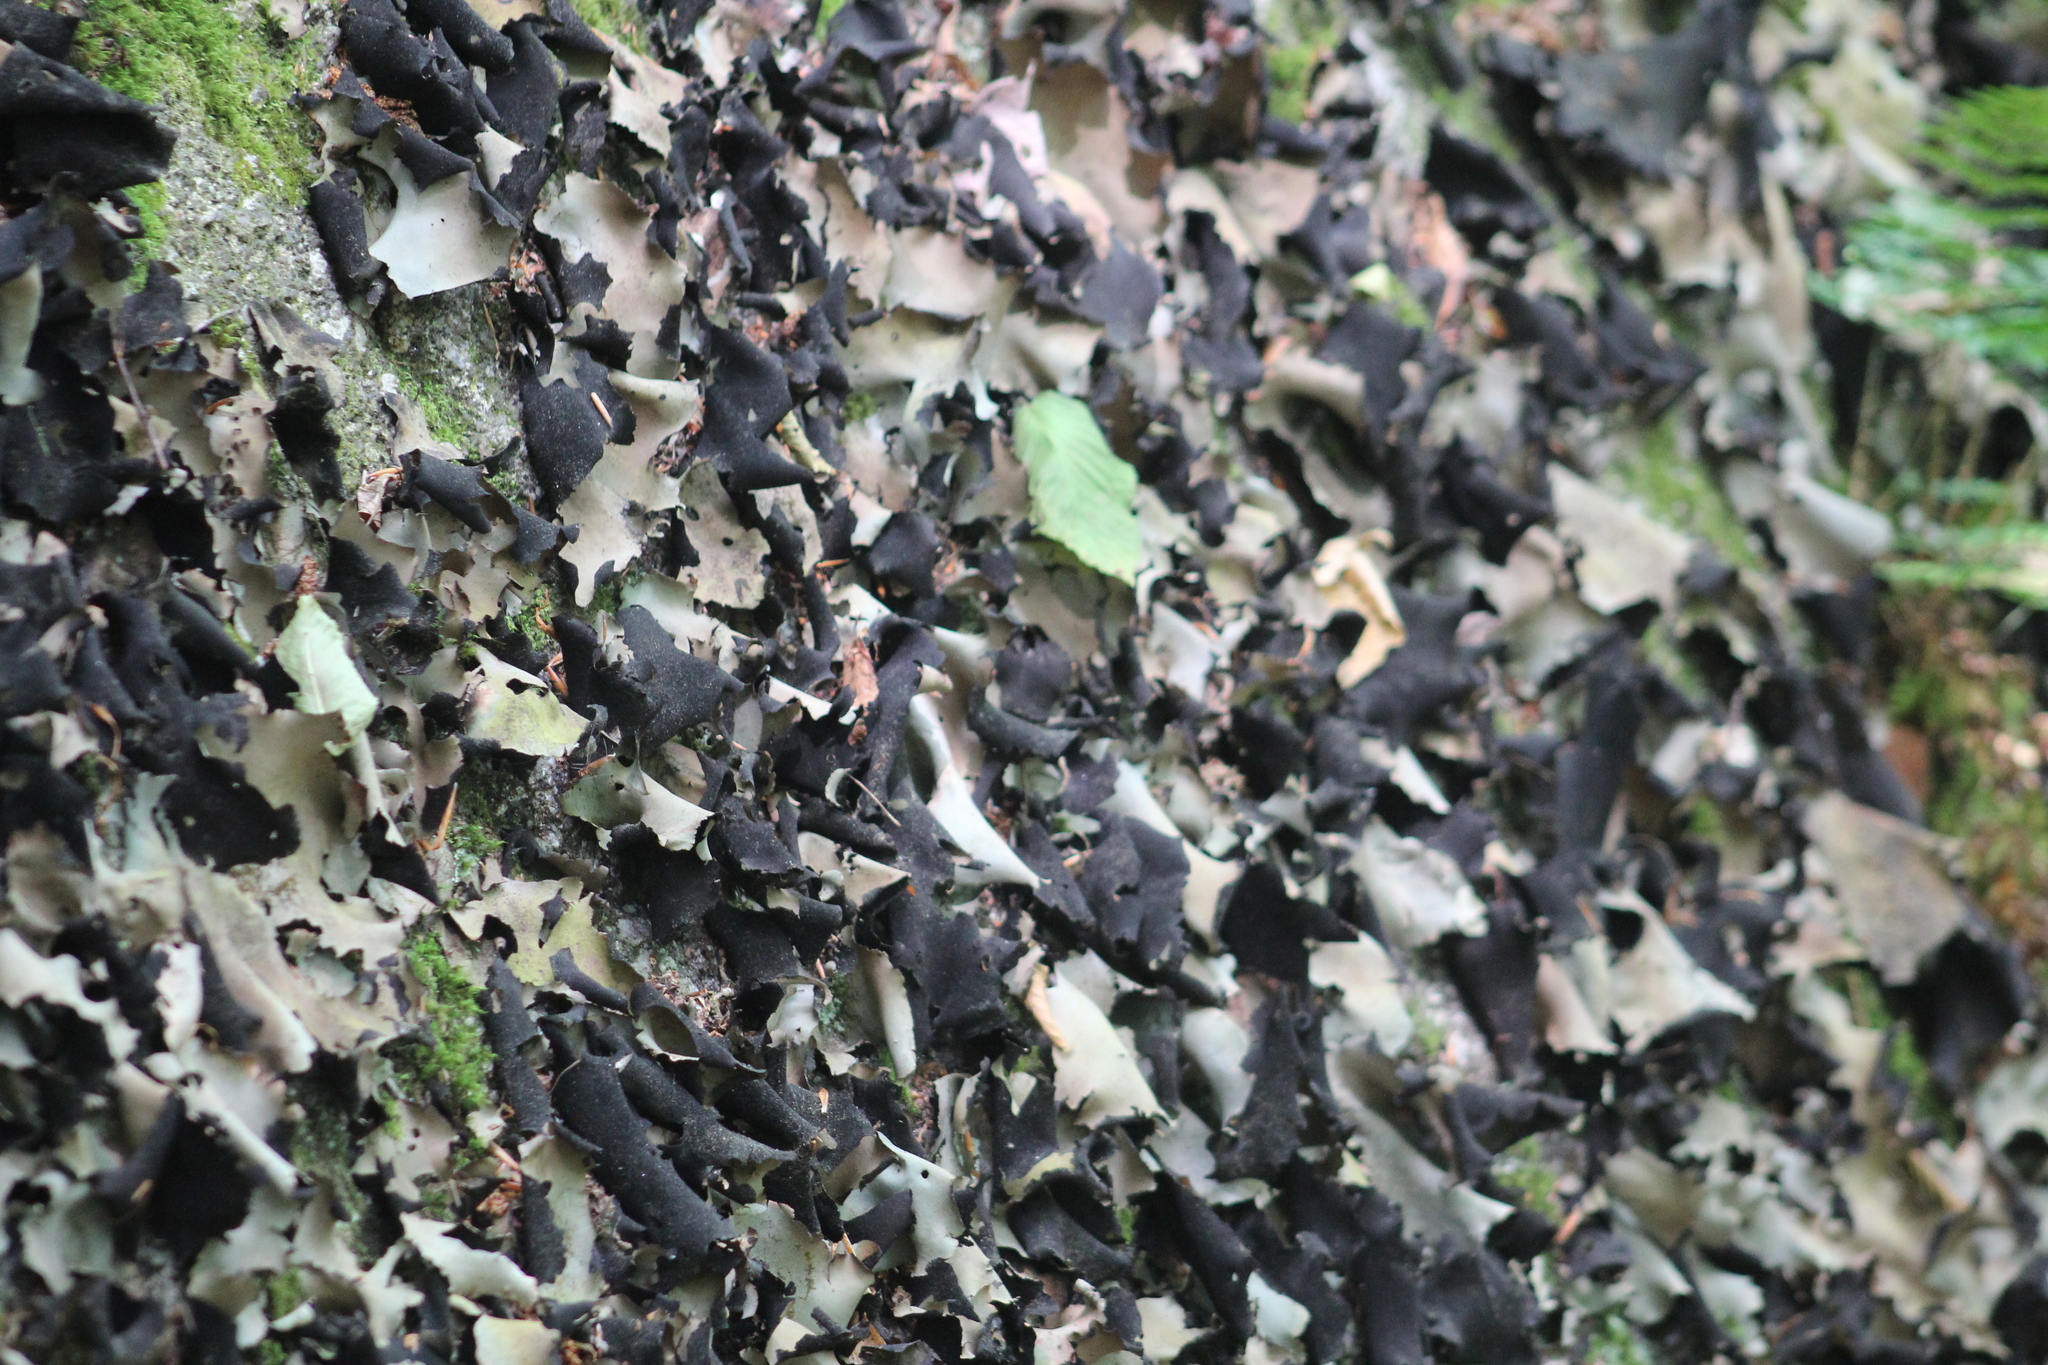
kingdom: Fungi
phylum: Ascomycota
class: Lecanoromycetes
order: Umbilicariales
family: Umbilicariaceae
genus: Umbilicaria
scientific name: Umbilicaria mammulata
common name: Smooth rock tripe
